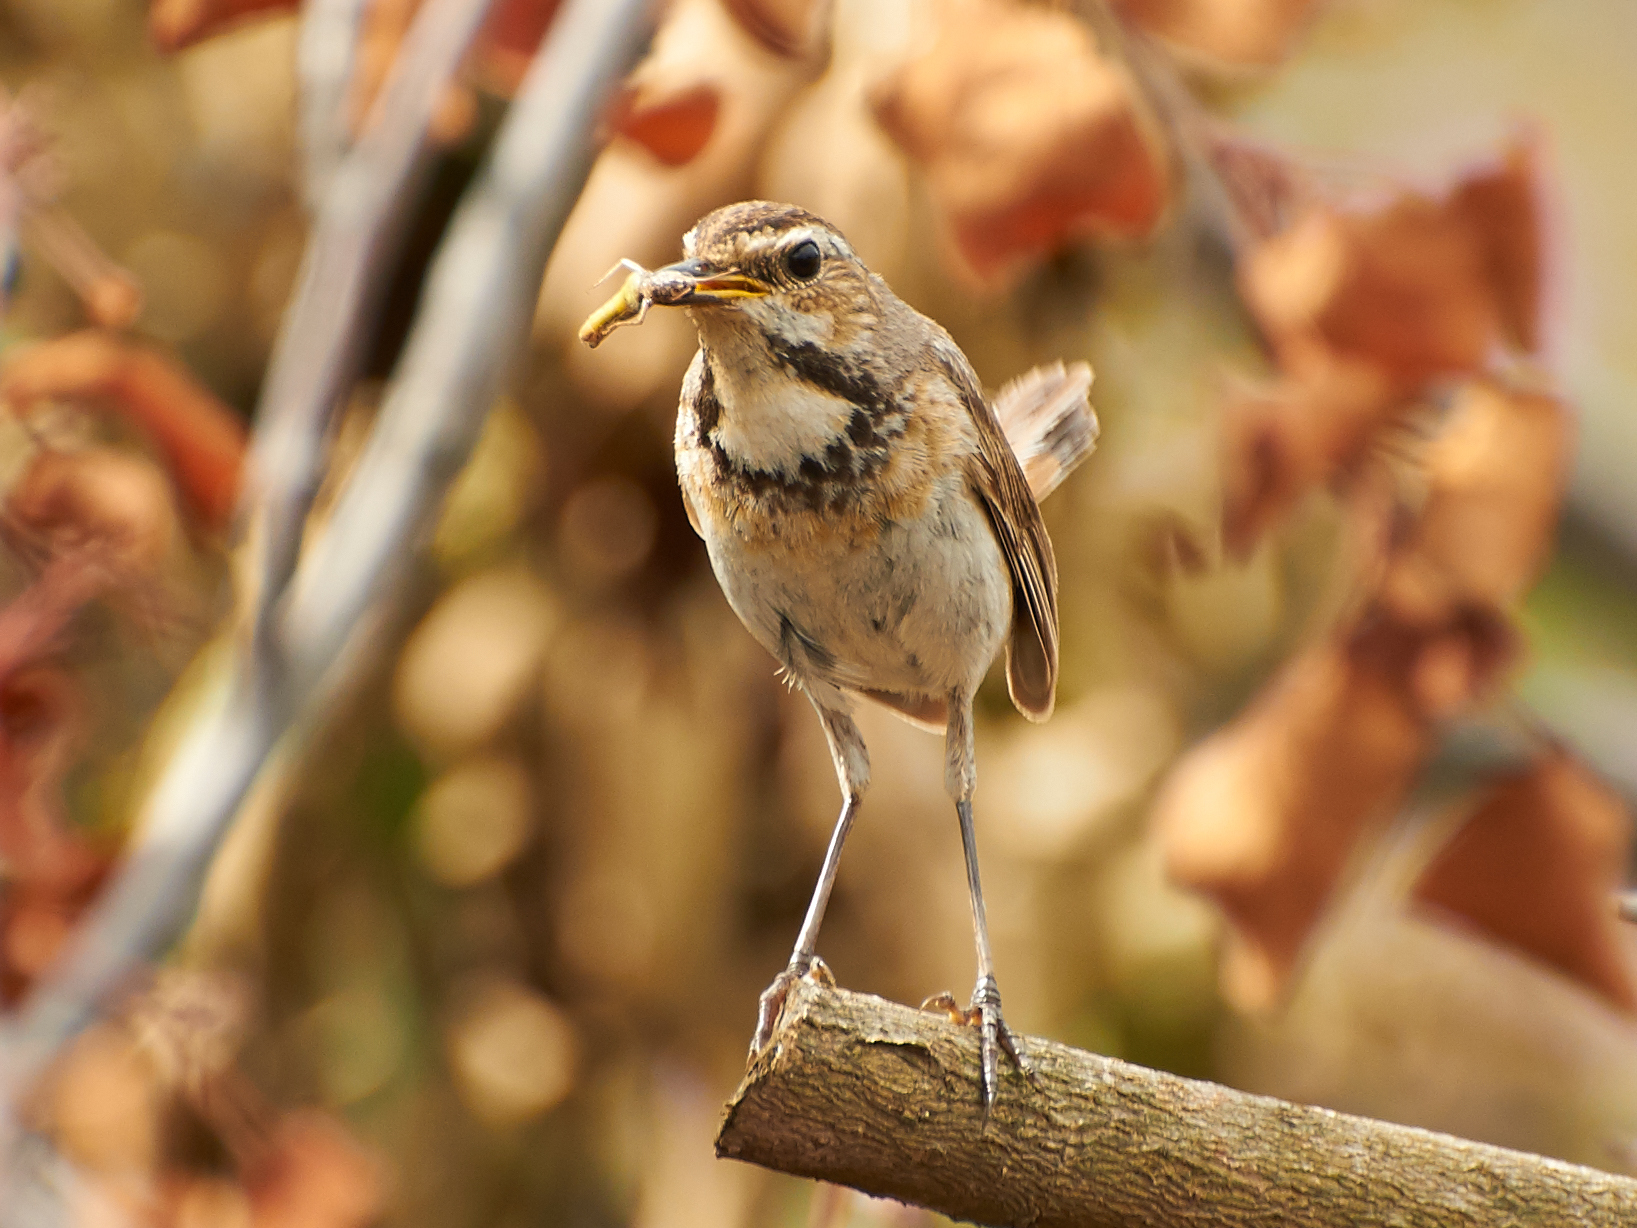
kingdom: Animalia
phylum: Chordata
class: Aves
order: Passeriformes
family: Muscicapidae
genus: Luscinia
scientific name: Luscinia svecica
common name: Bluethroat
